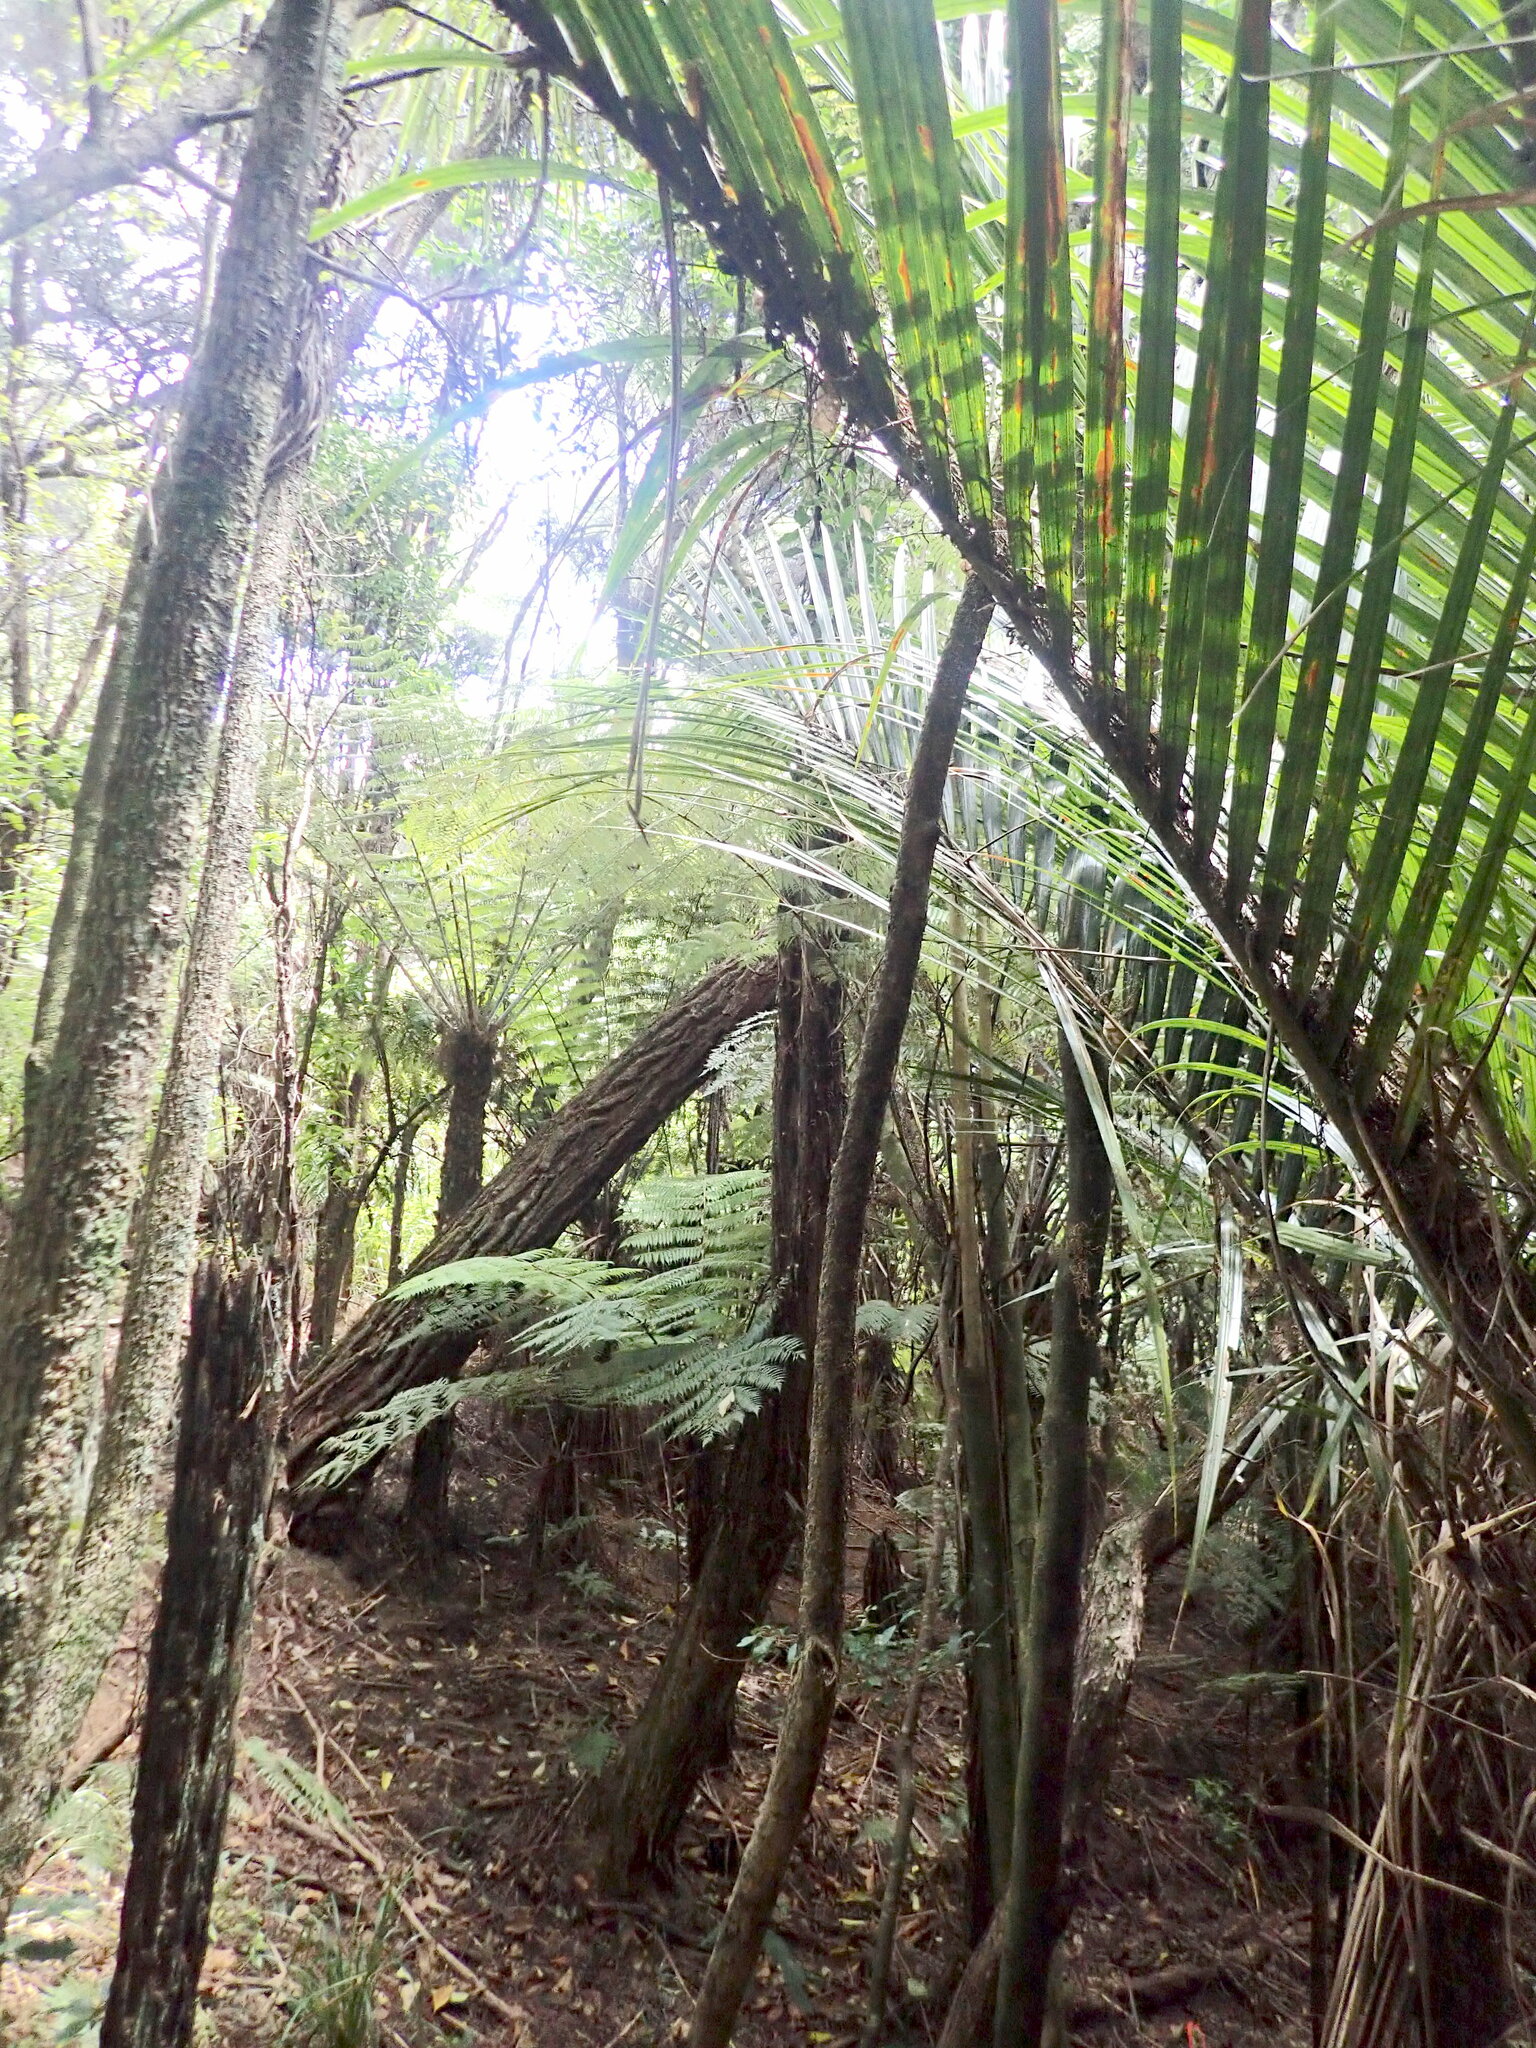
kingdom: Plantae
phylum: Tracheophyta
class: Liliopsida
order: Arecales
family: Arecaceae
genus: Rhopalostylis
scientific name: Rhopalostylis sapida
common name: Feather-duster palm
